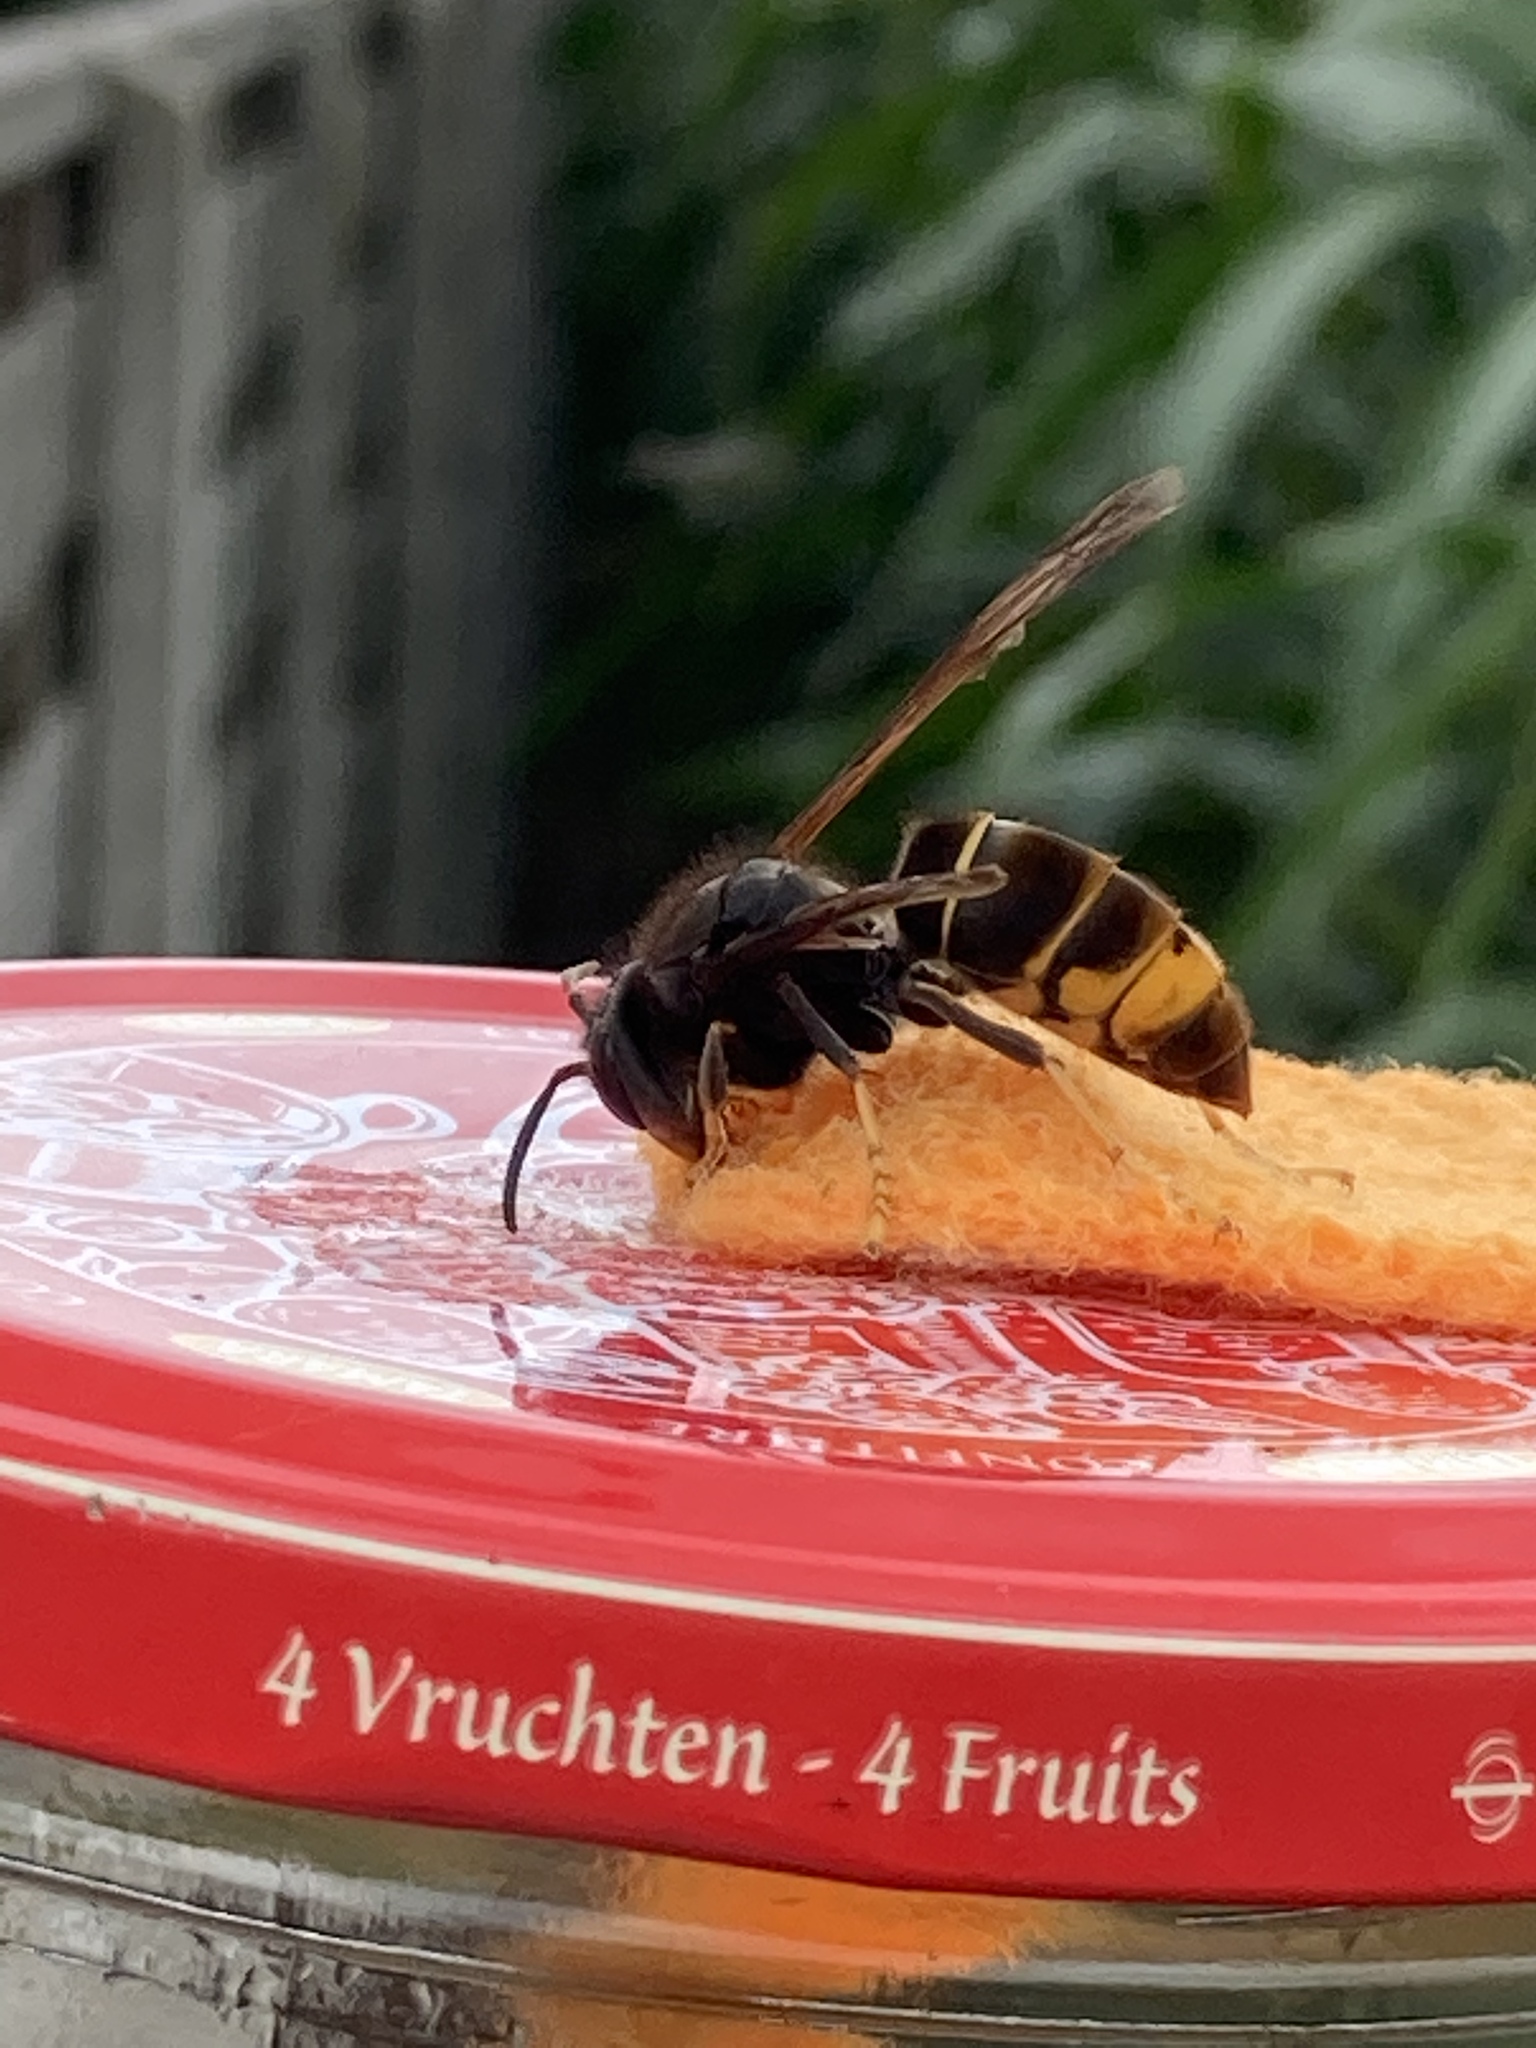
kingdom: Animalia
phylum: Arthropoda
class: Insecta
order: Hymenoptera
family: Vespidae
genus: Vespa
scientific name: Vespa velutina
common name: Asian hornet
